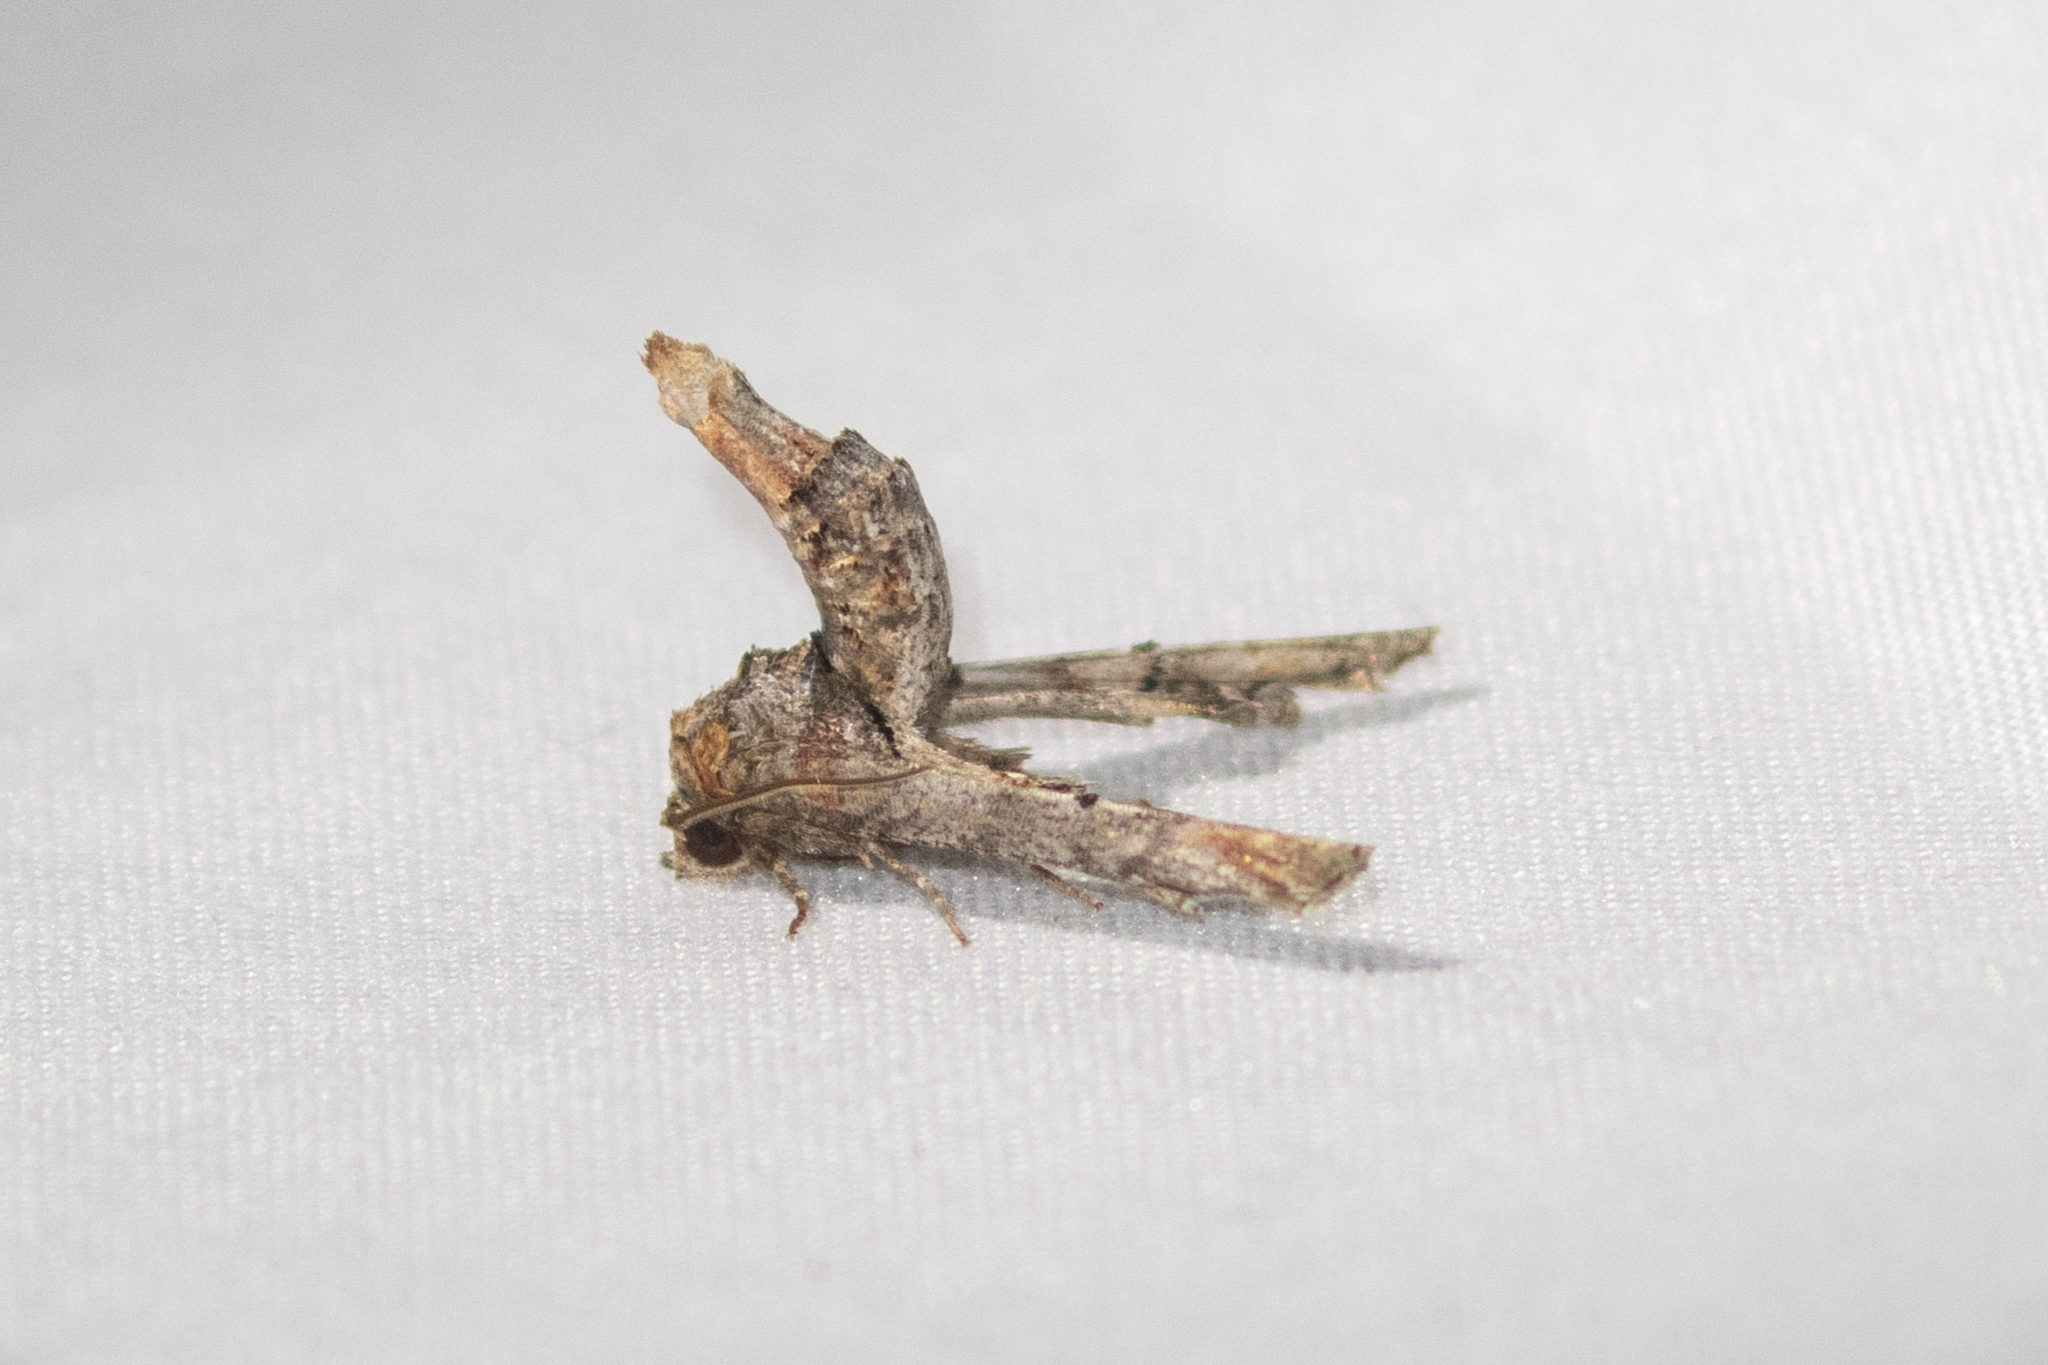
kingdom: Animalia
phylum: Arthropoda
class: Insecta
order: Lepidoptera
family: Euteliidae
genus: Marathyssa
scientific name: Marathyssa inficita
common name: Dark marathyssa moth
